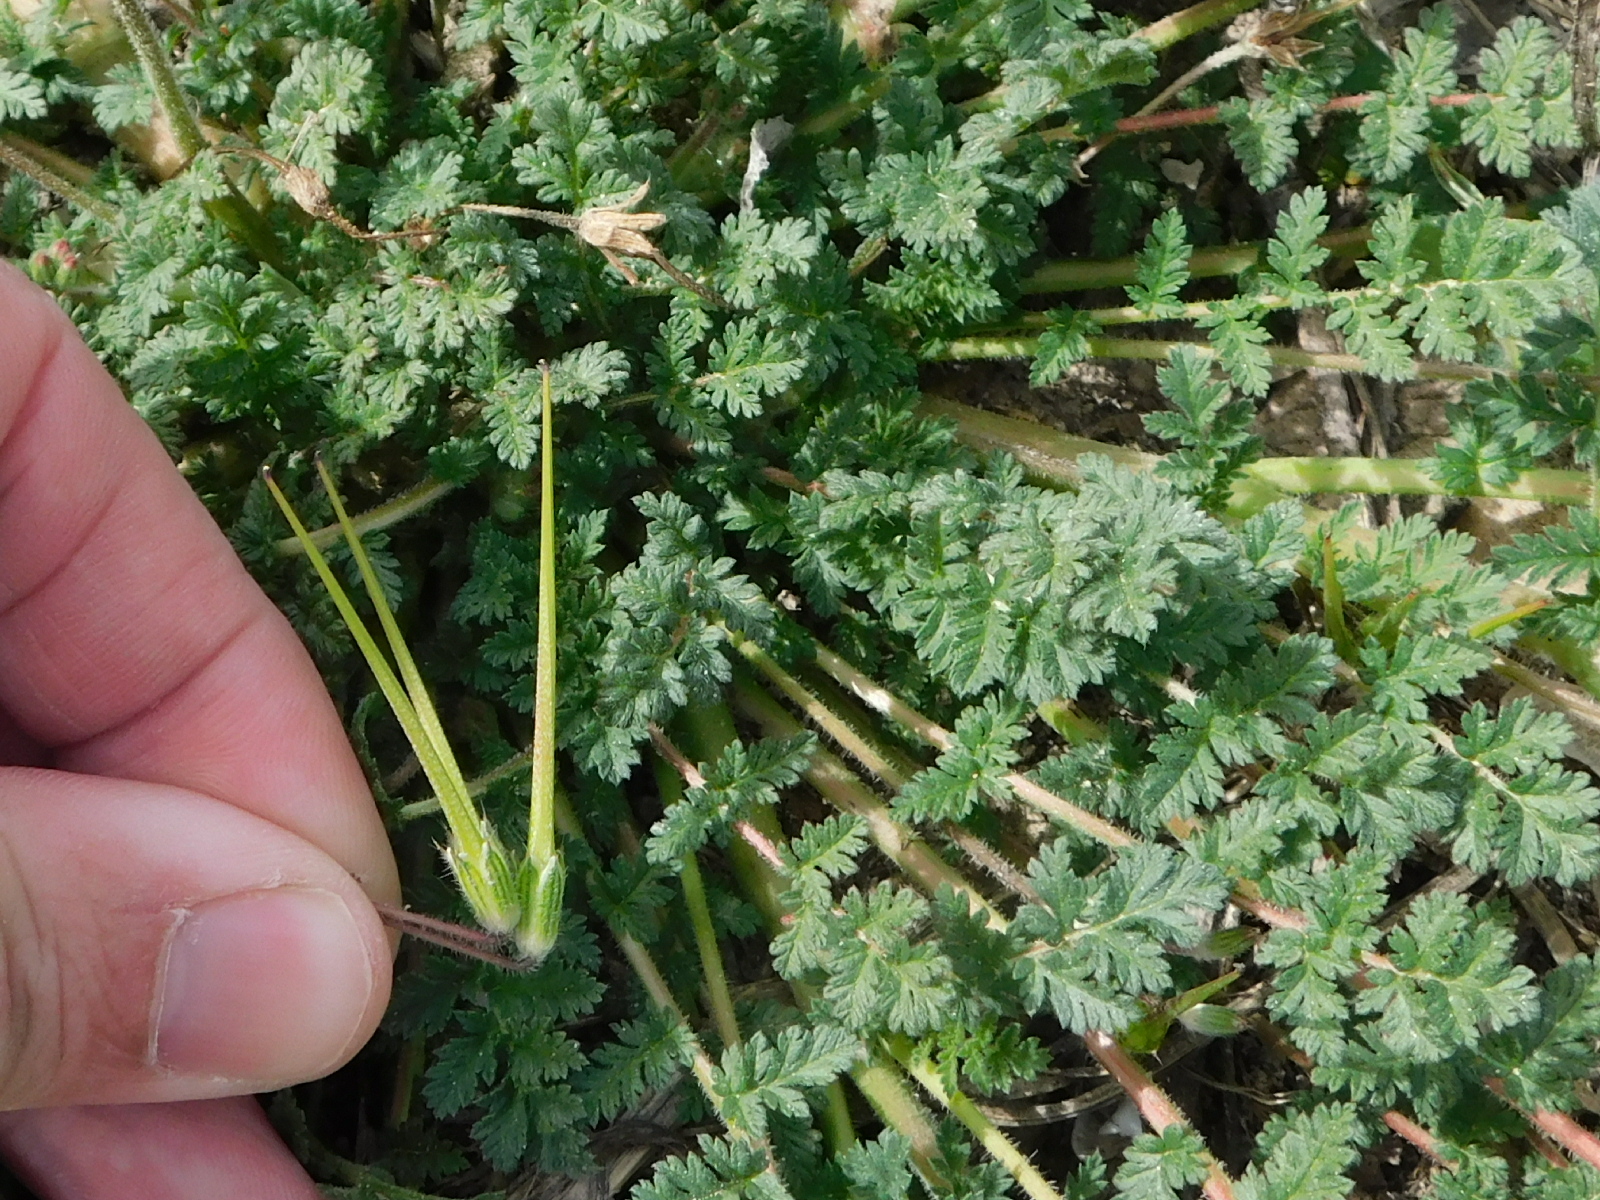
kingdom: Plantae
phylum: Tracheophyta
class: Magnoliopsida
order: Geraniales
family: Geraniaceae
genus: Erodium
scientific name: Erodium cicutarium
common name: Common stork's-bill
